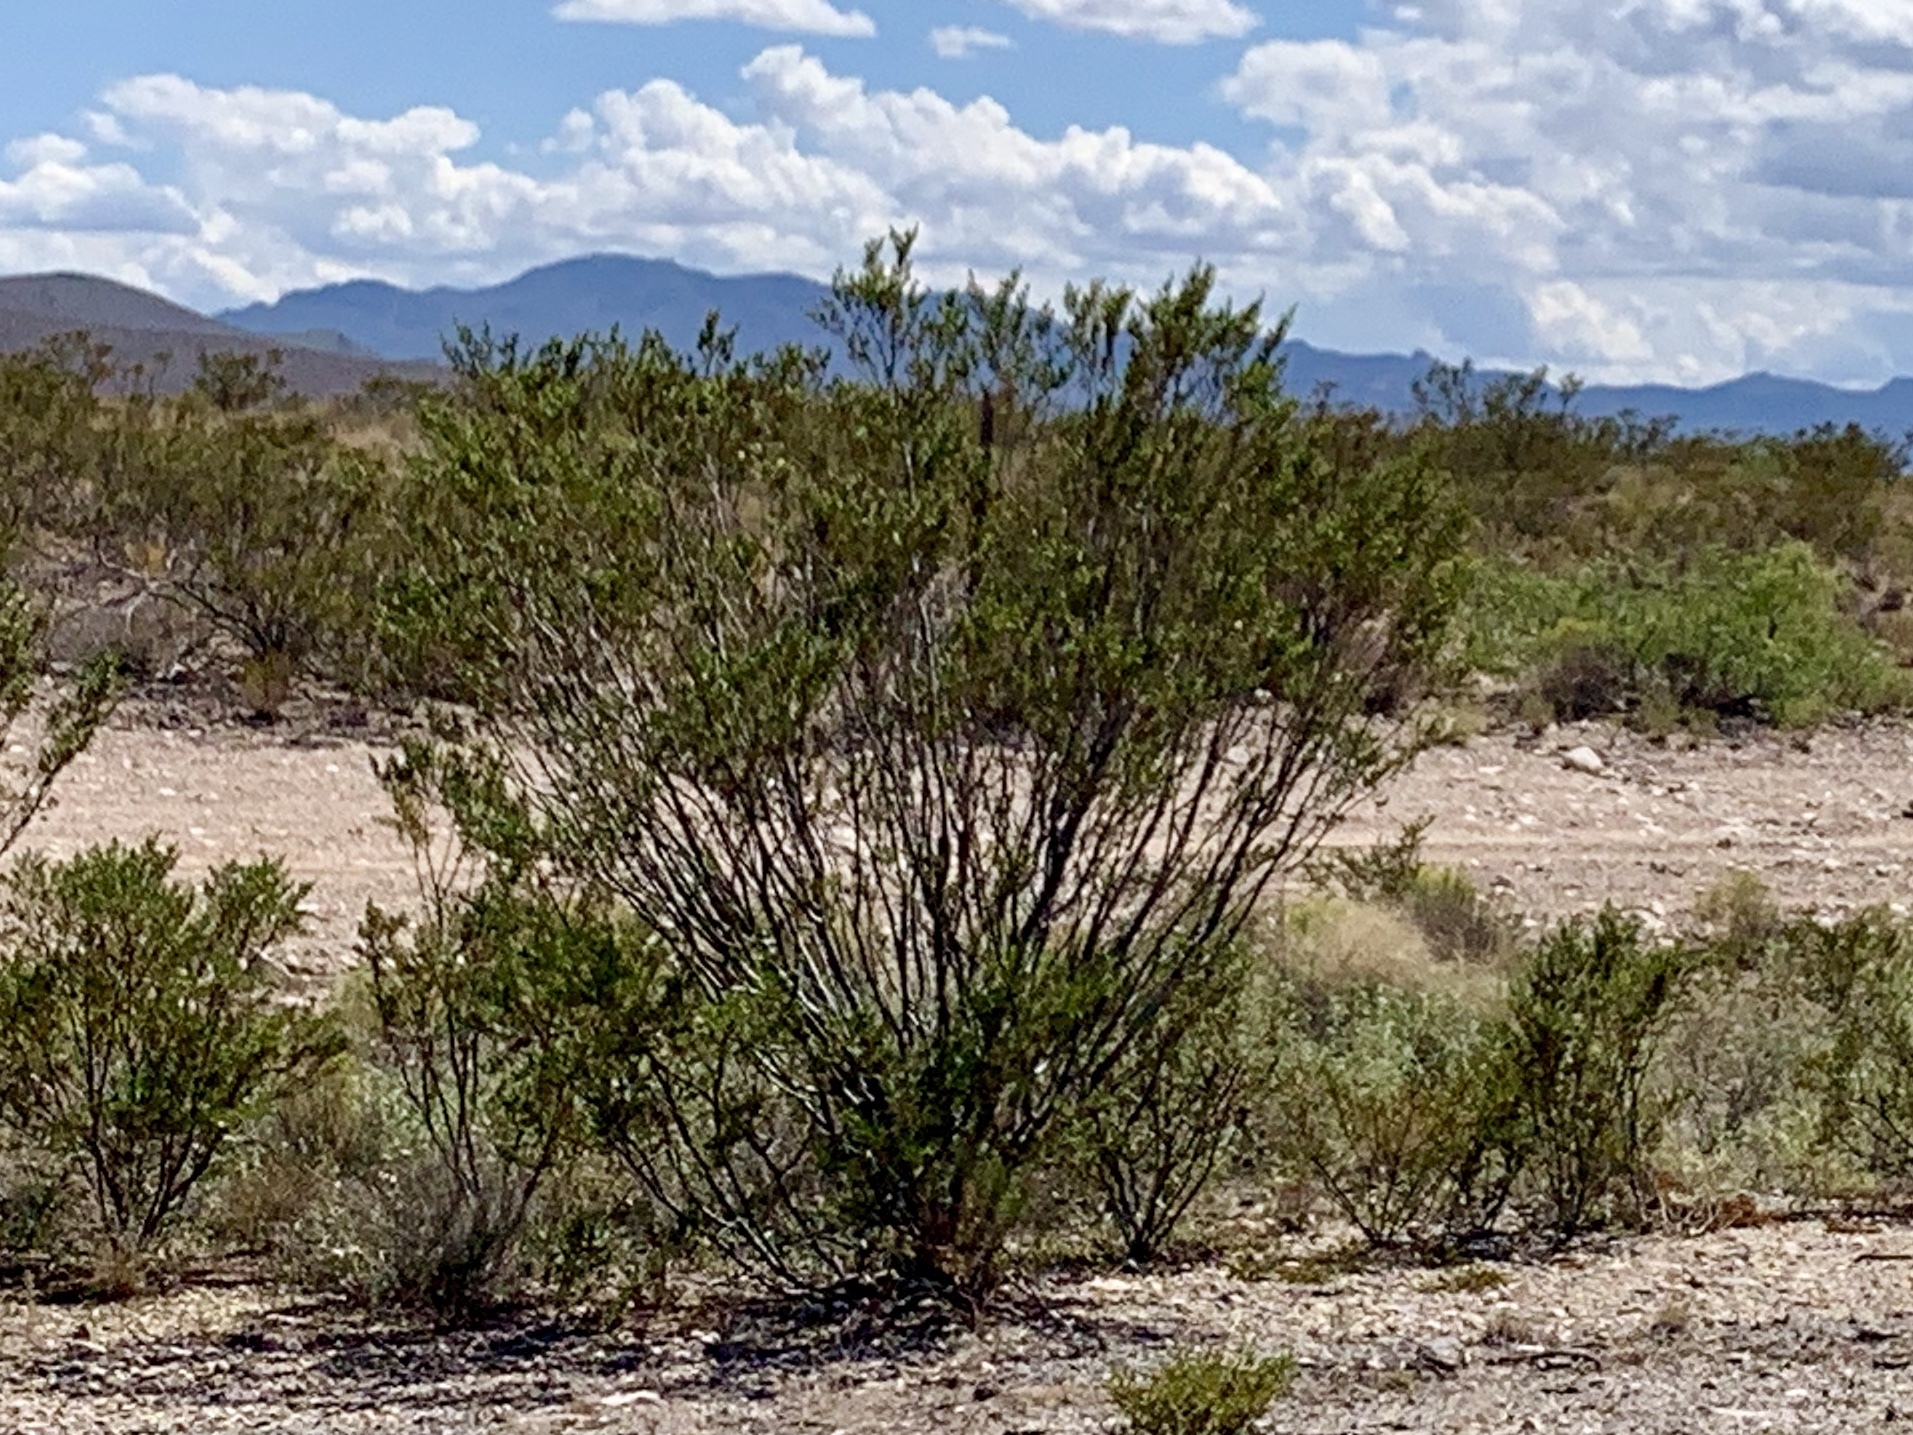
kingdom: Plantae
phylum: Tracheophyta
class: Magnoliopsida
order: Zygophyllales
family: Zygophyllaceae
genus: Larrea
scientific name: Larrea tridentata
